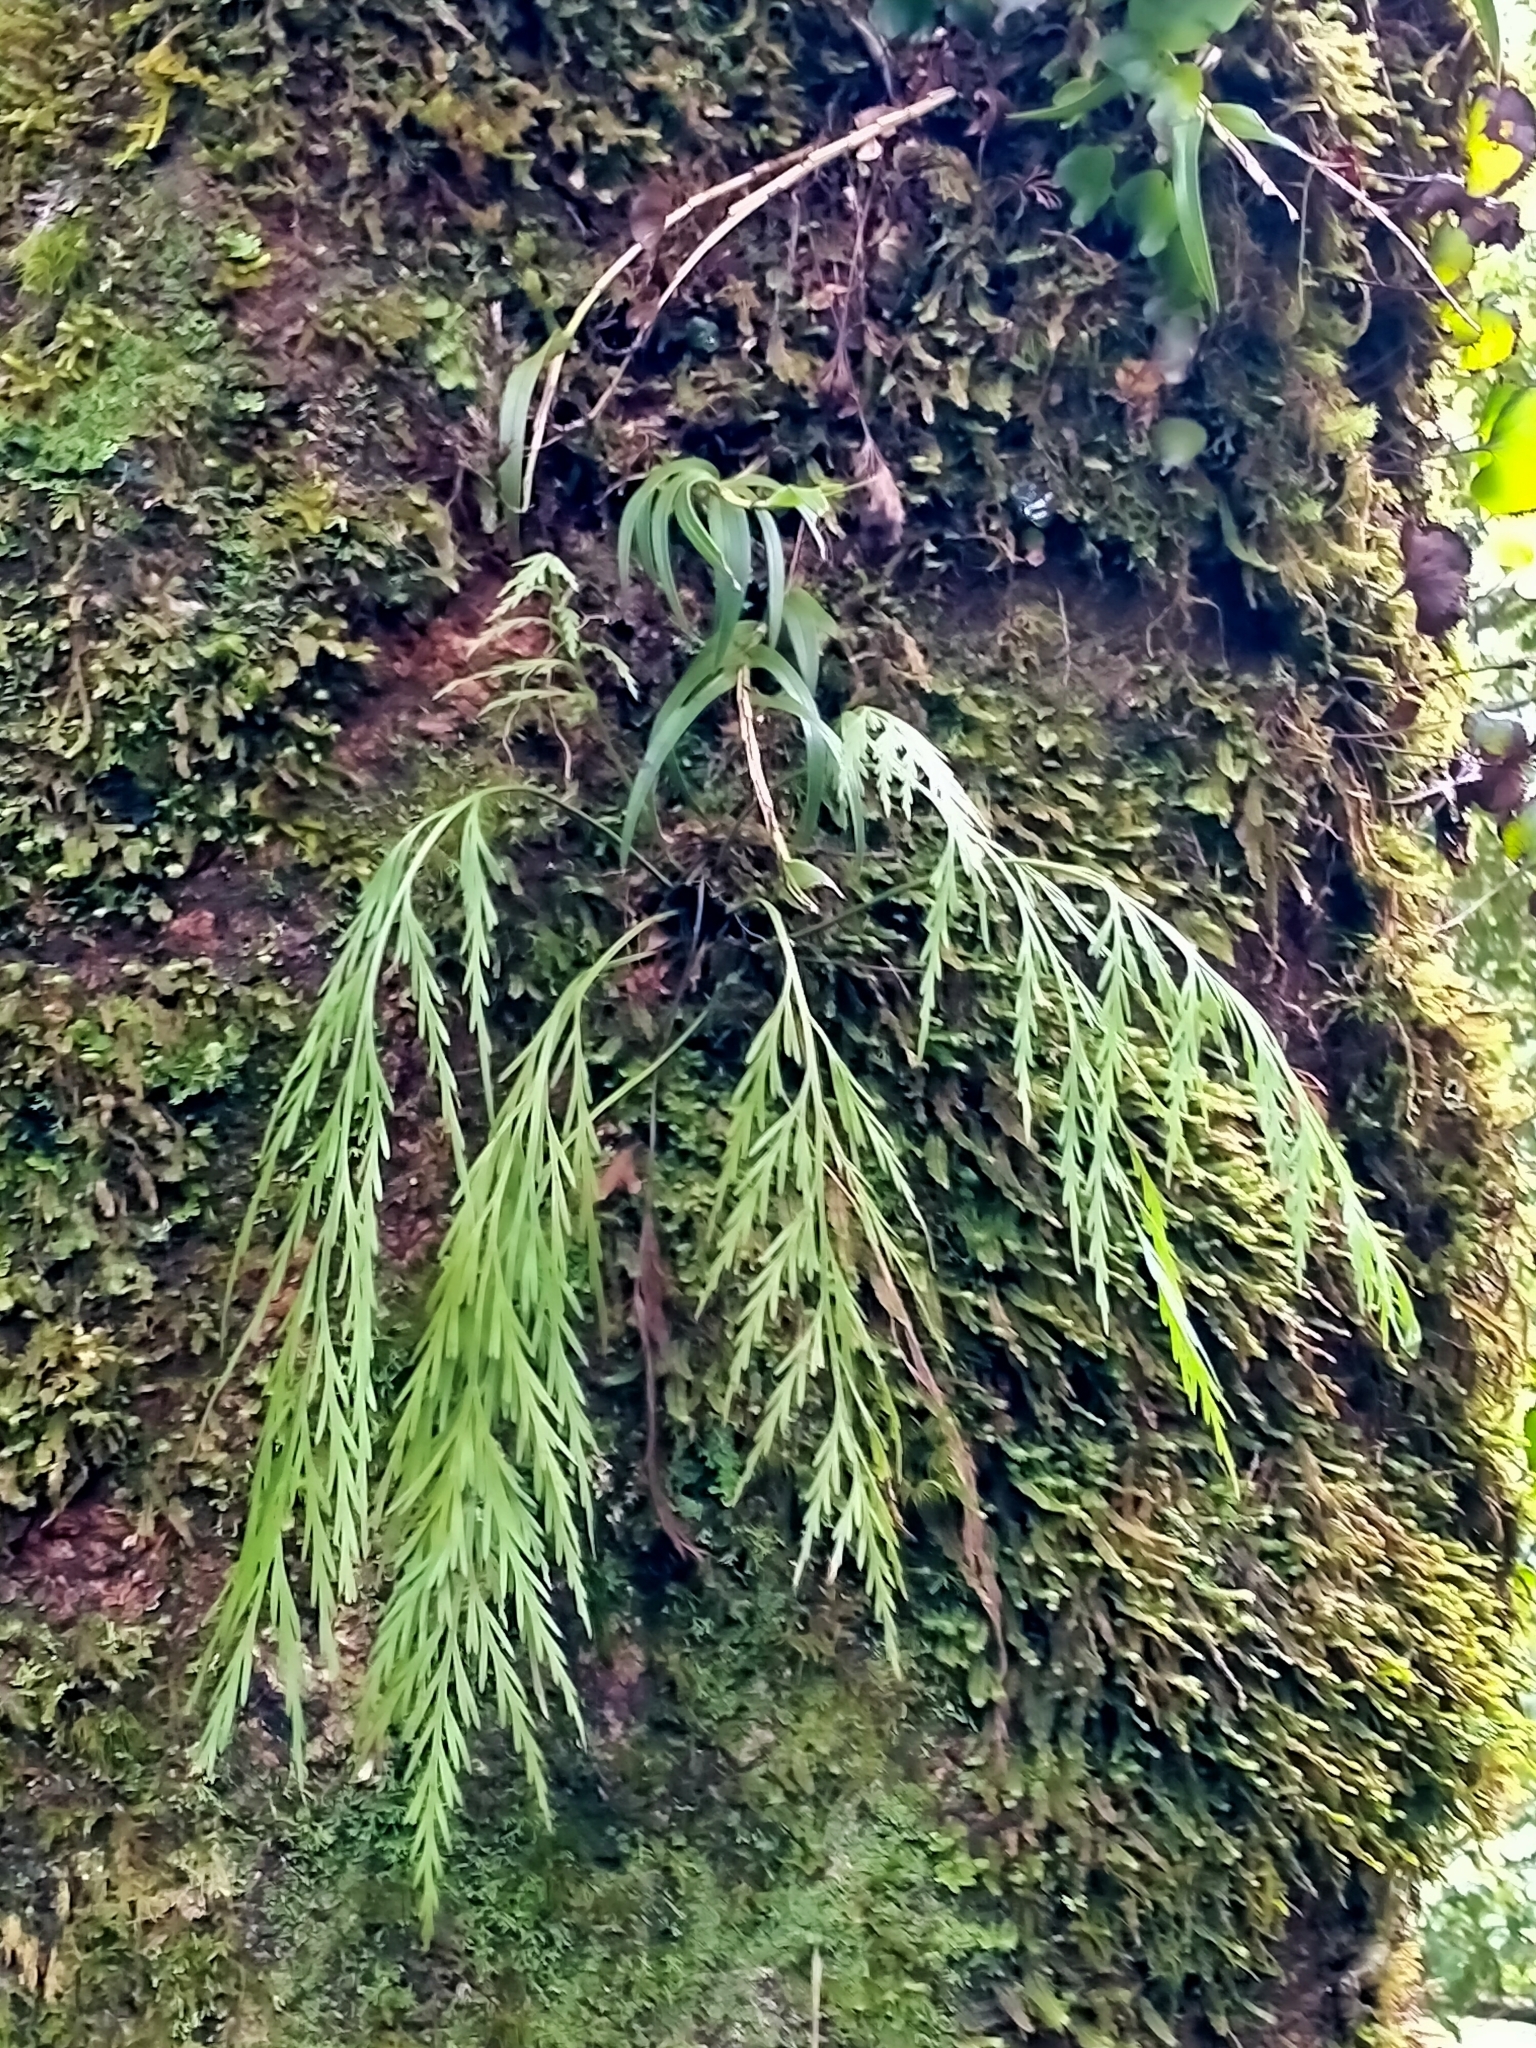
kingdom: Plantae
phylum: Tracheophyta
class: Polypodiopsida
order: Polypodiales
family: Aspleniaceae
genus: Asplenium
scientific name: Asplenium flaccidum
